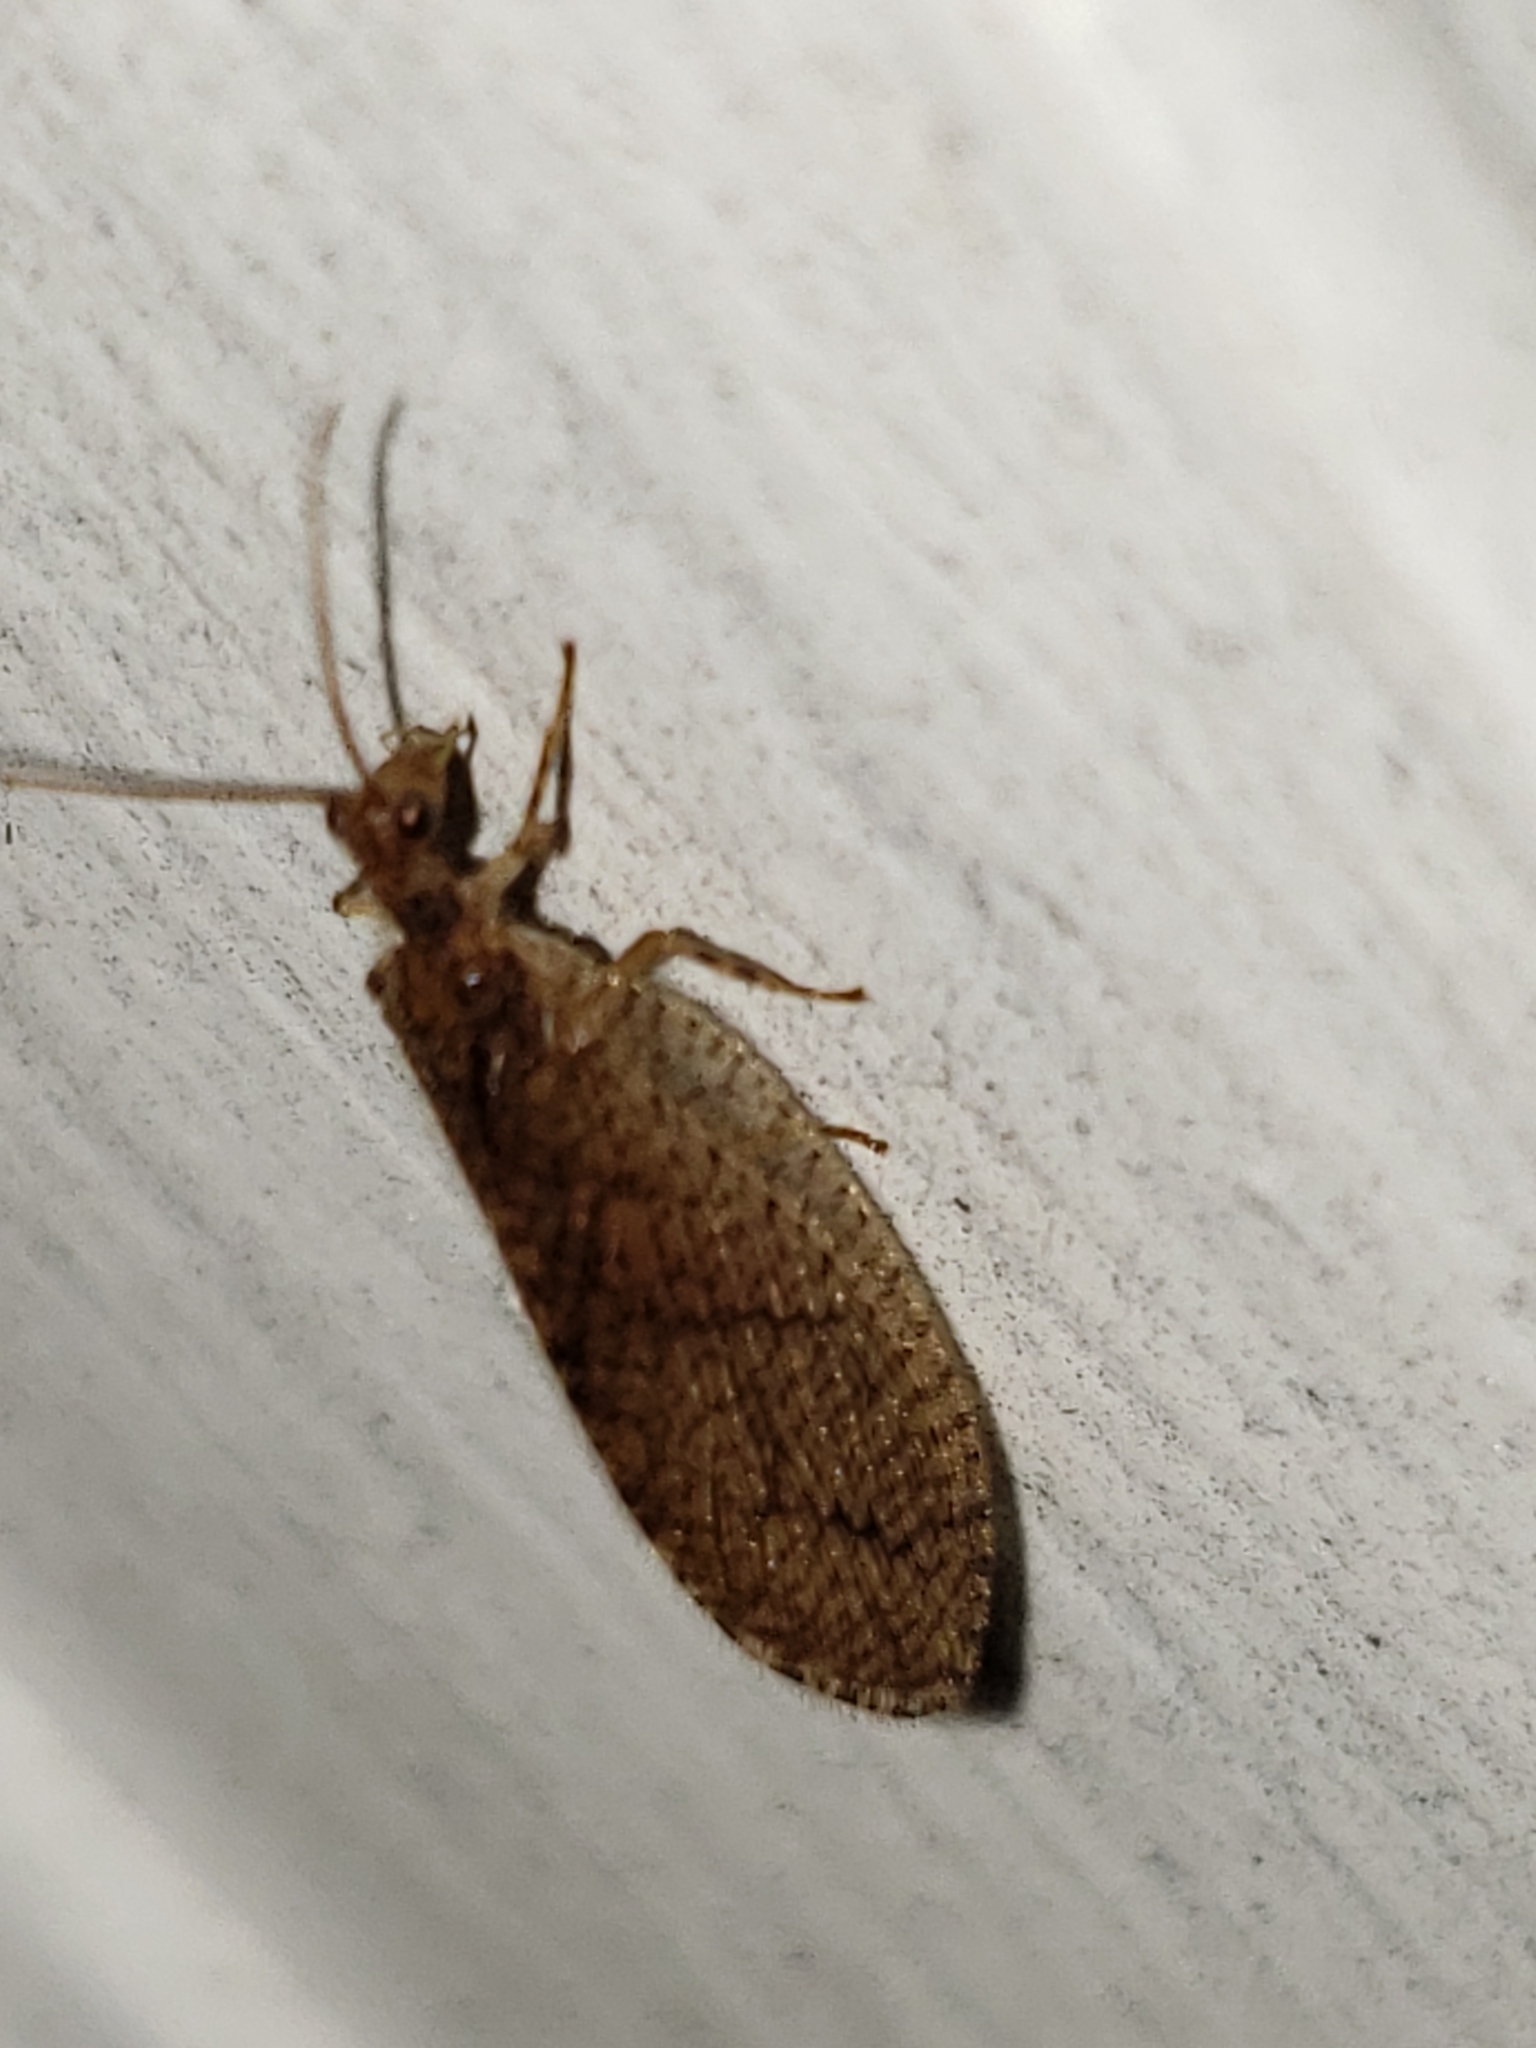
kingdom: Animalia
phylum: Arthropoda
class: Insecta
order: Neuroptera
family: Hemerobiidae
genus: Micromus
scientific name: Micromus posticus
